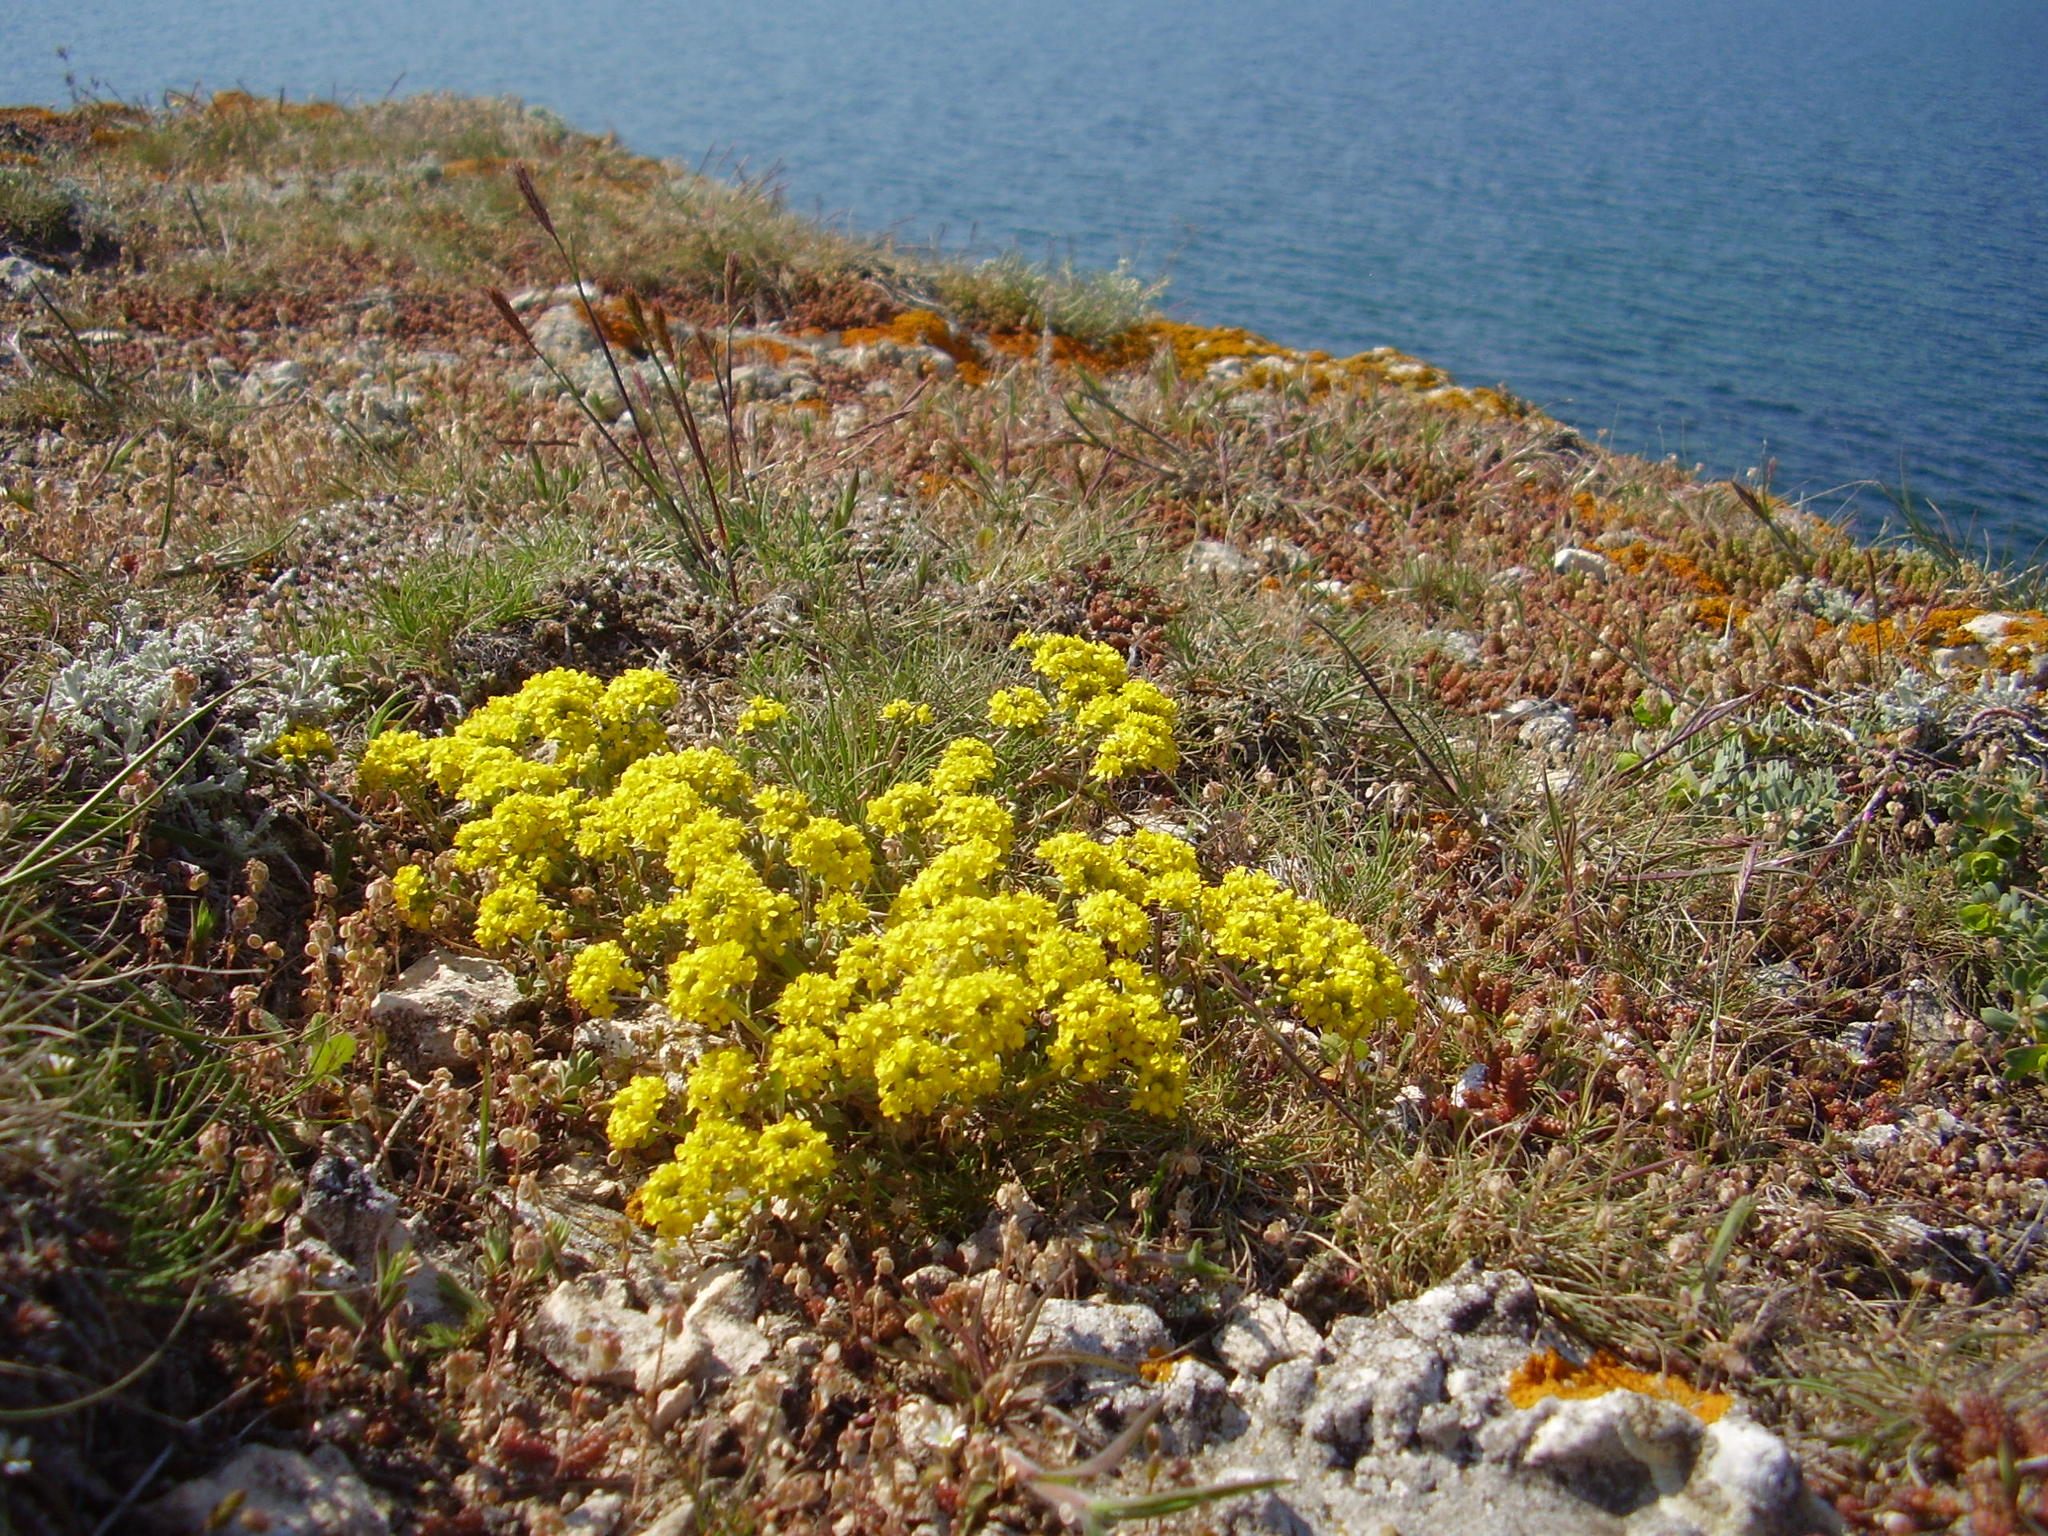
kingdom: Plantae
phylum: Tracheophyta
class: Magnoliopsida
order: Brassicales
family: Brassicaceae
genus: Odontarrhena
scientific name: Odontarrhena obtusifolia
